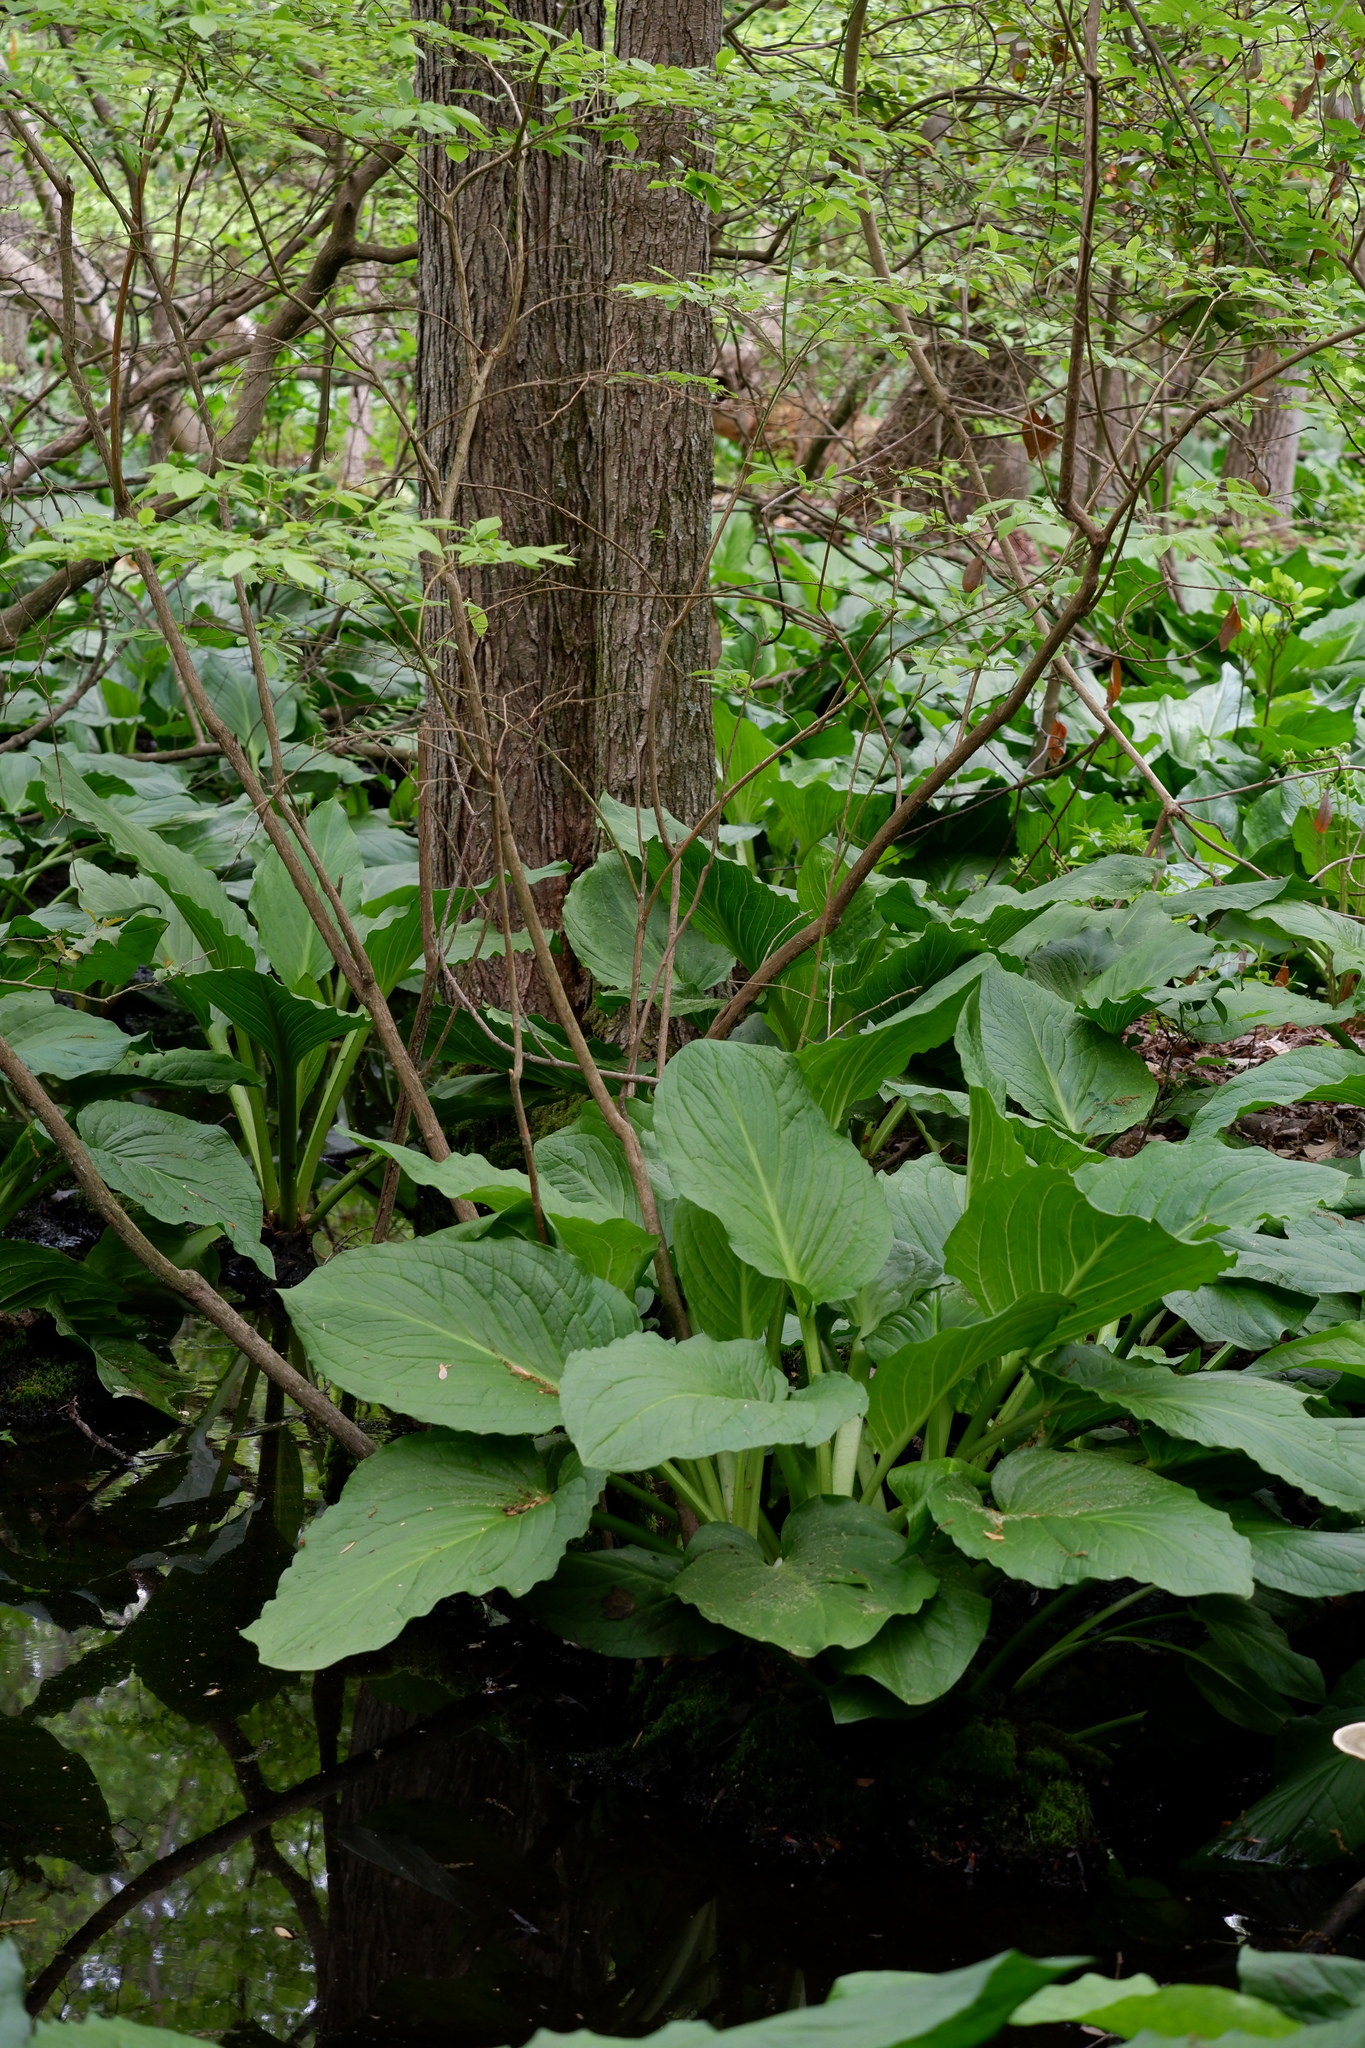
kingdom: Plantae
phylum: Tracheophyta
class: Liliopsida
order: Alismatales
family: Araceae
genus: Symplocarpus
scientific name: Symplocarpus foetidus
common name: Eastern skunk cabbage
